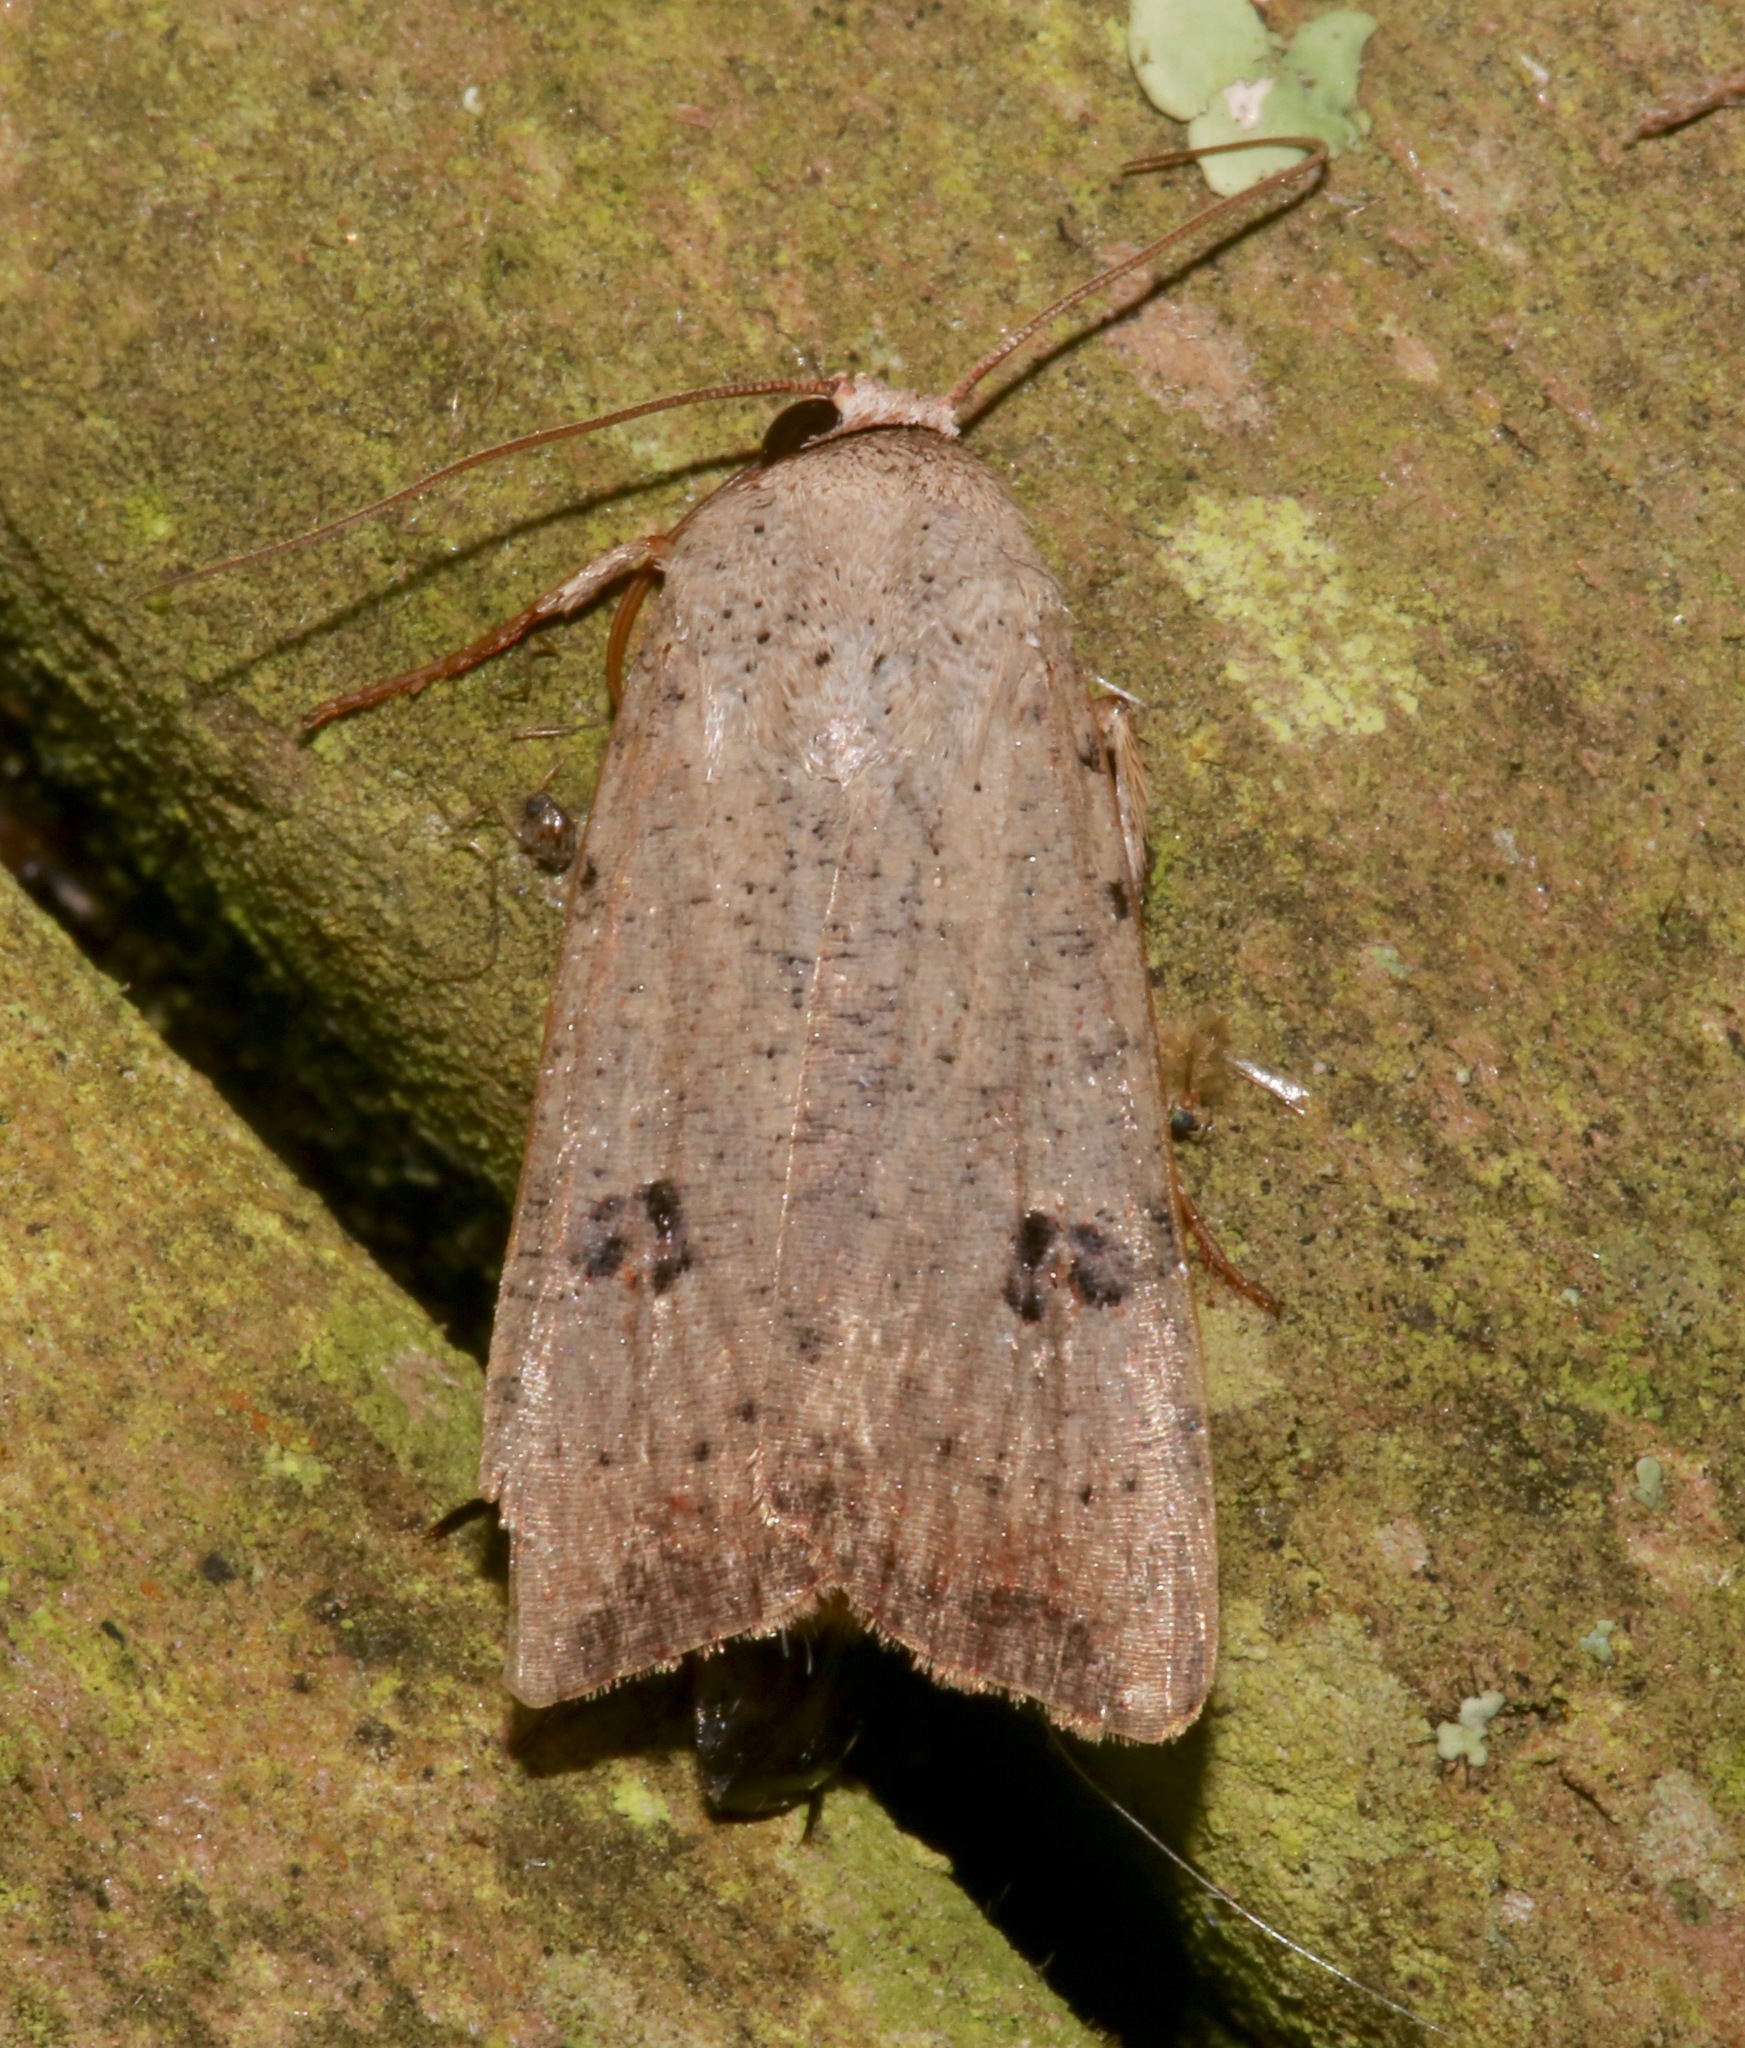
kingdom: Animalia
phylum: Arthropoda
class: Insecta
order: Lepidoptera
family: Noctuidae
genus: Anicla
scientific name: Anicla infecta
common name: Green cutworm
